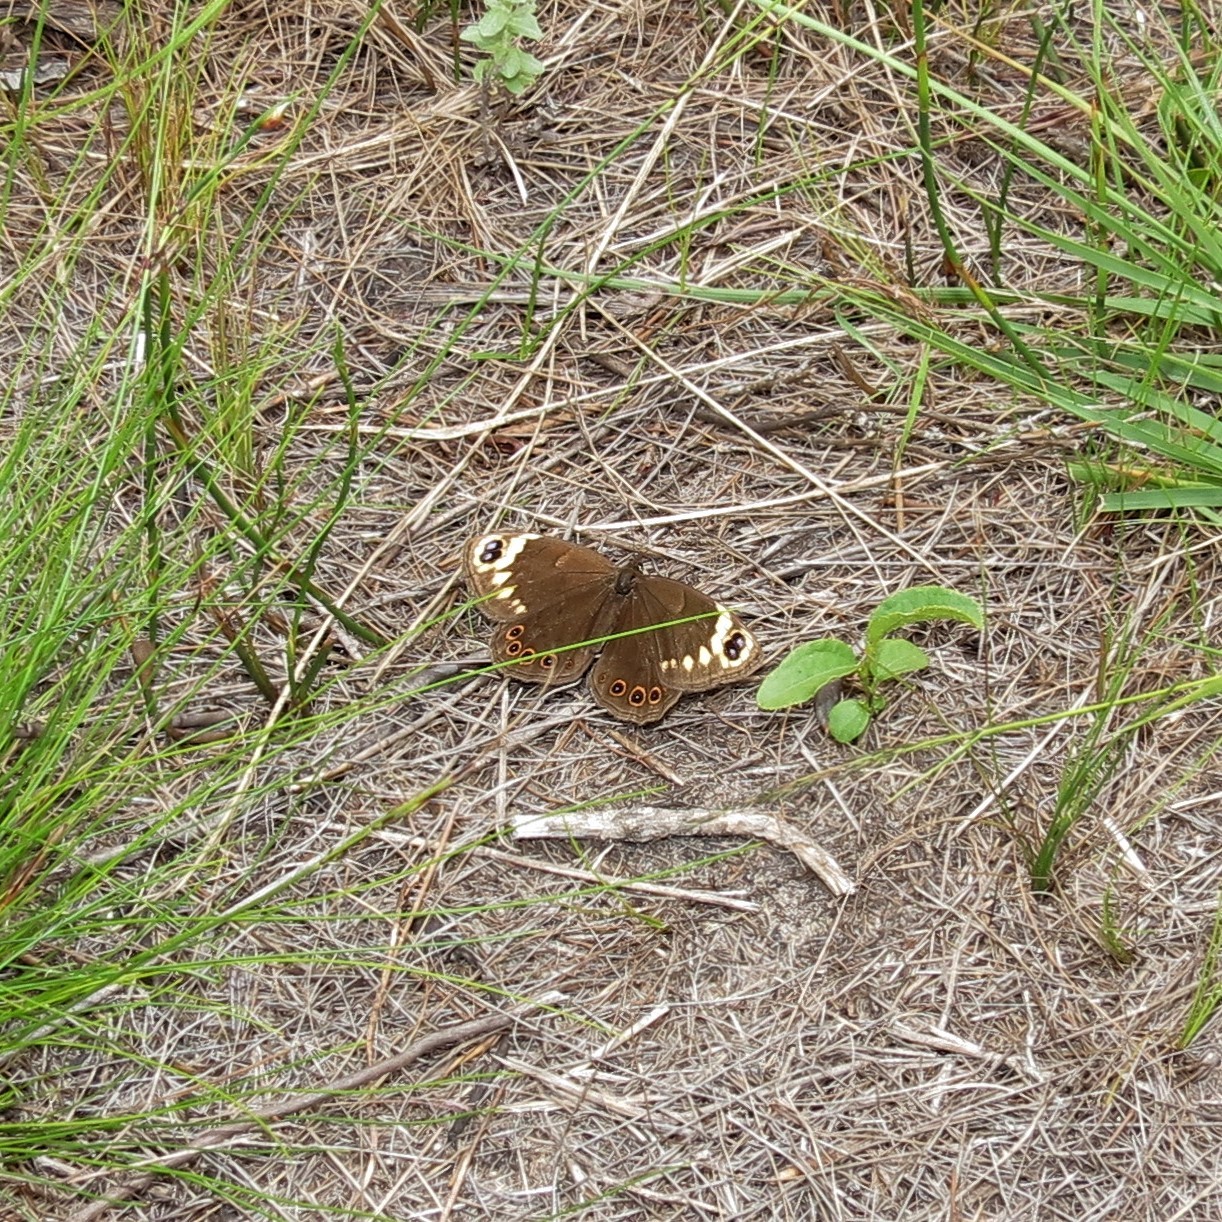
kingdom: Animalia
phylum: Arthropoda
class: Insecta
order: Lepidoptera
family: Nymphalidae
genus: Dira
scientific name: Dira clytus
